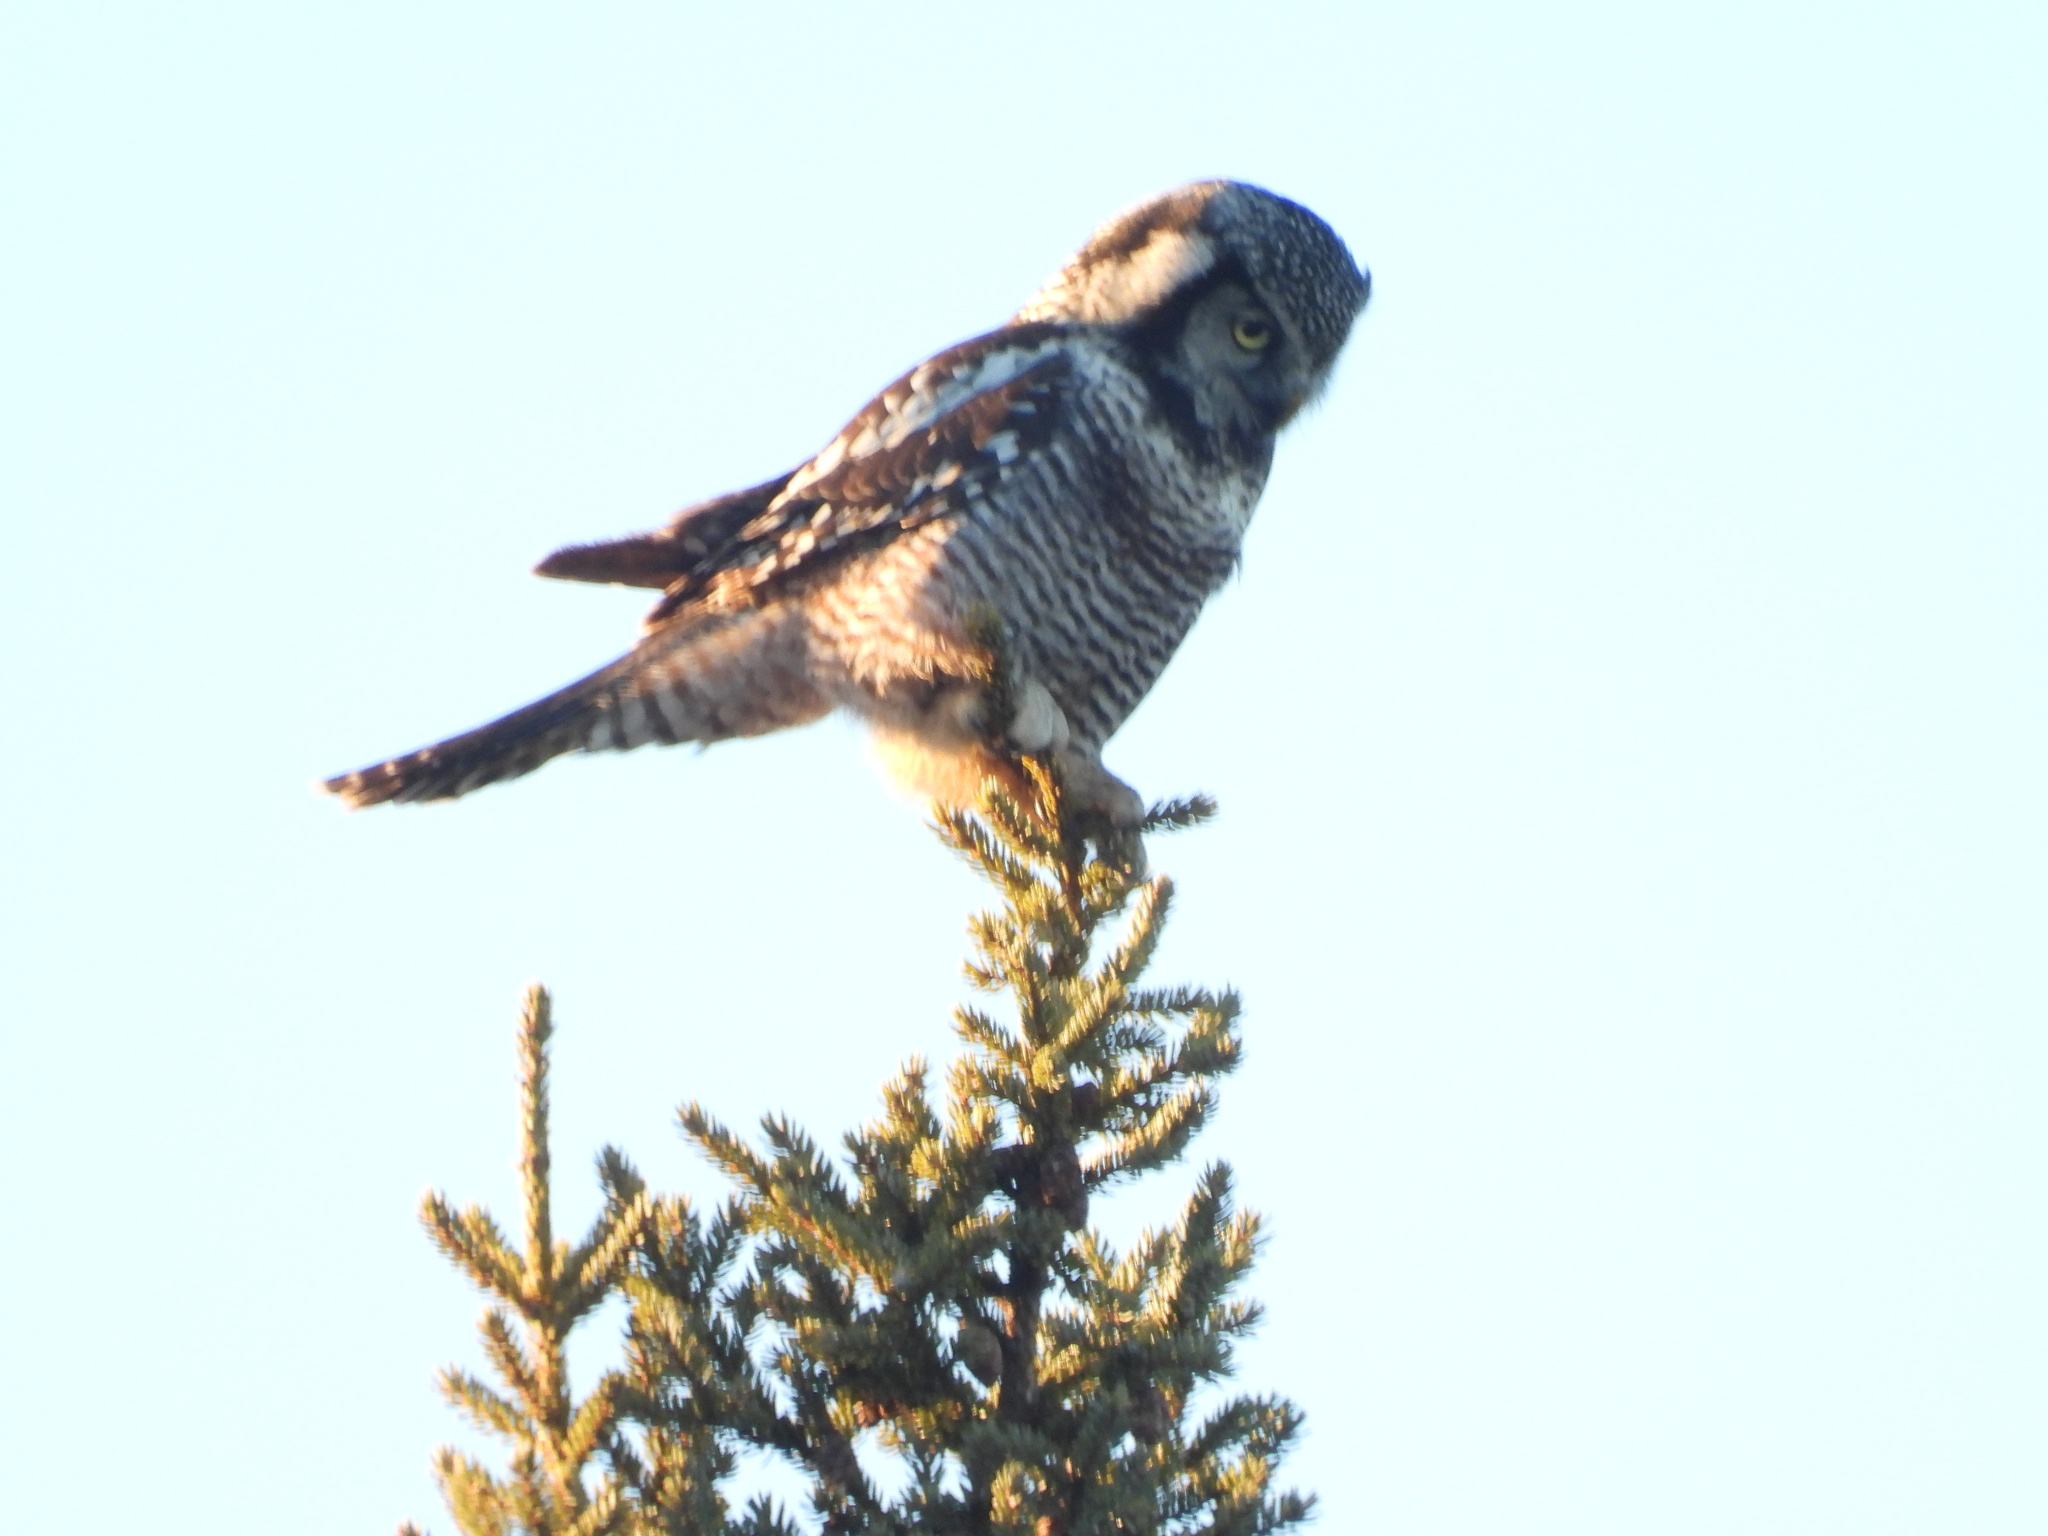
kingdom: Animalia
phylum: Chordata
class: Aves
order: Strigiformes
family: Strigidae
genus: Surnia
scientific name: Surnia ulula
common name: Northern hawk-owl
